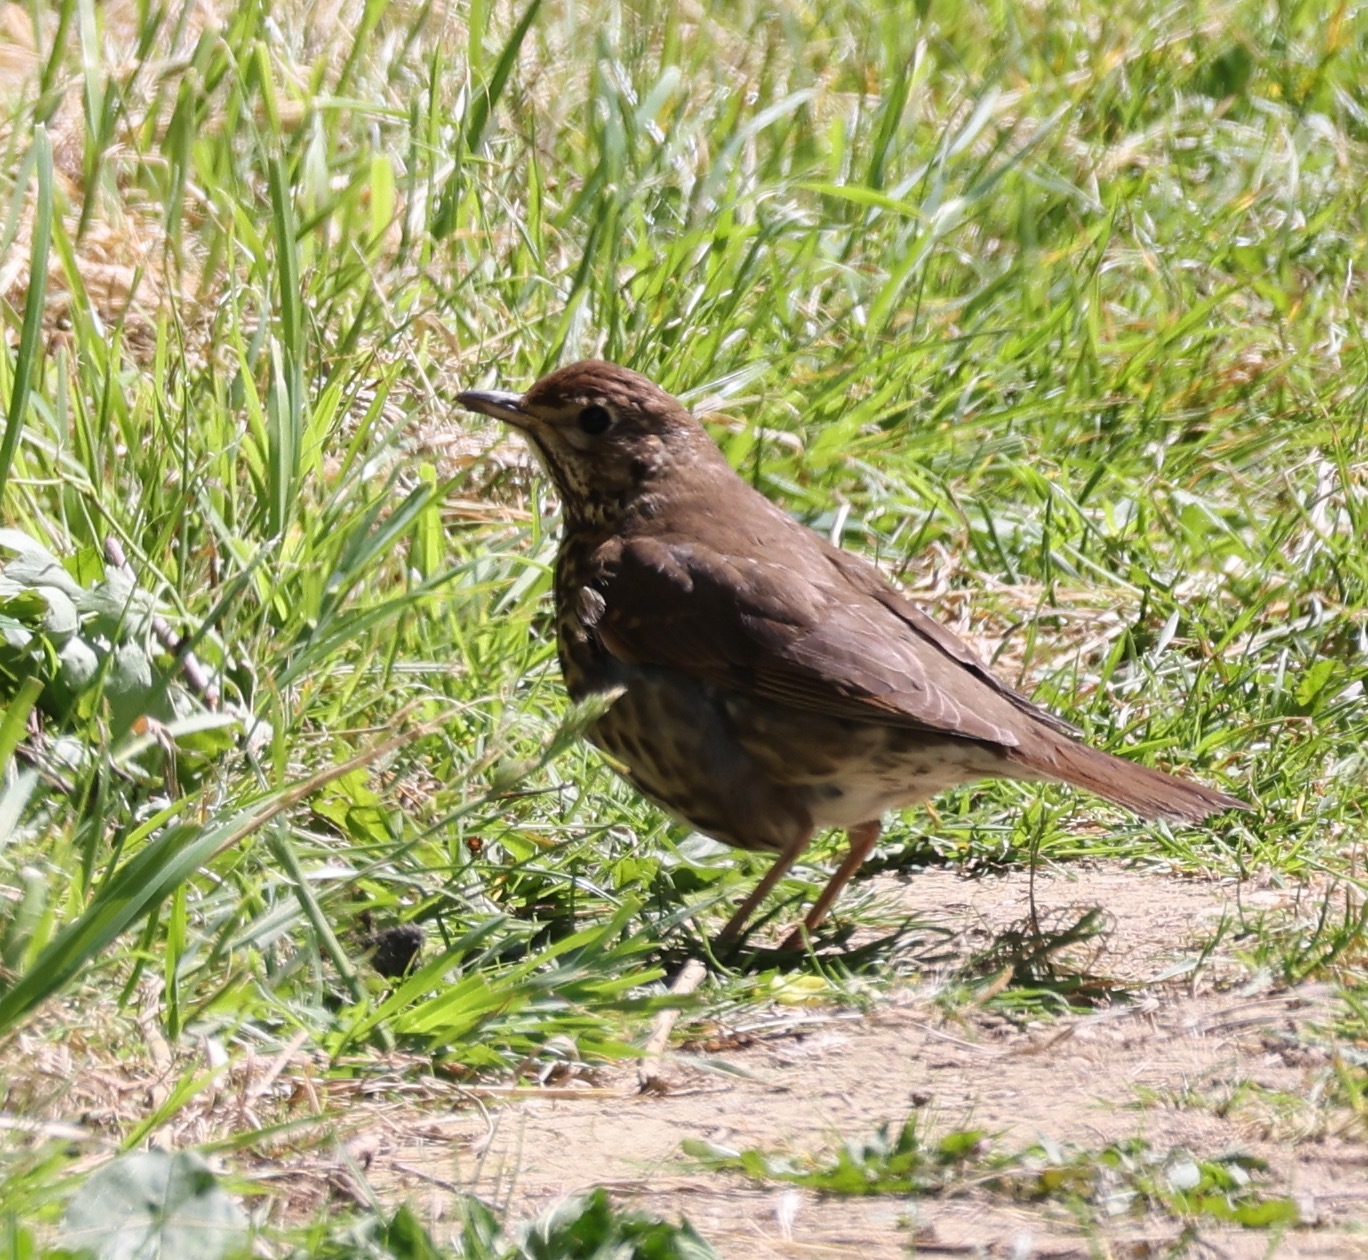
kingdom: Animalia
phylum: Chordata
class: Aves
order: Passeriformes
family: Turdidae
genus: Turdus
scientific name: Turdus philomelos
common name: Song thrush
